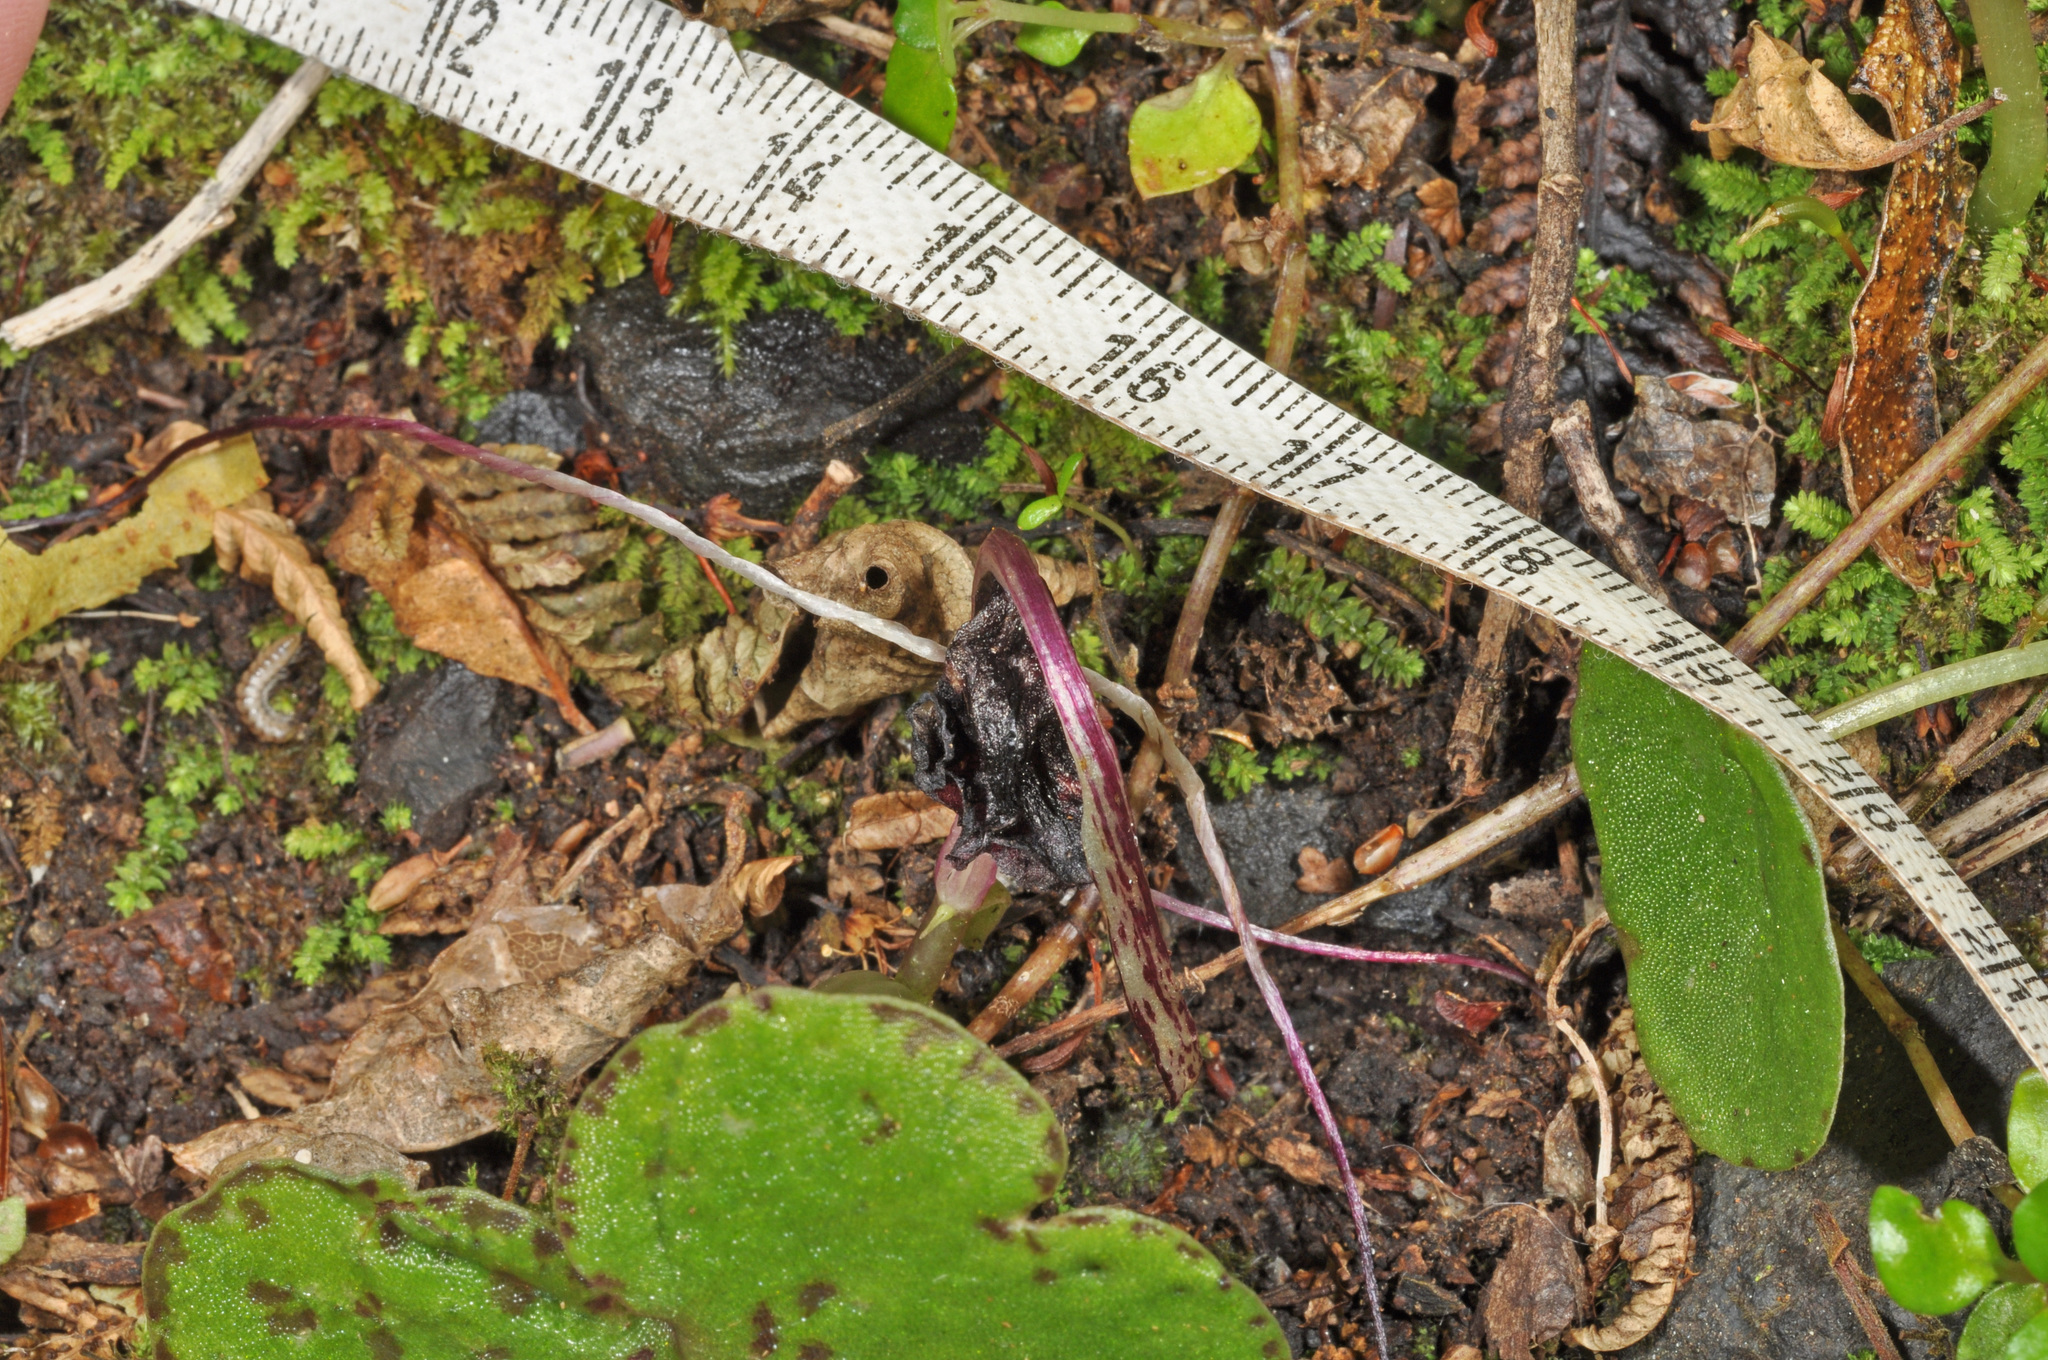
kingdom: Plantae
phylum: Tracheophyta
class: Liliopsida
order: Asparagales
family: Orchidaceae
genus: Corybas
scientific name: Corybas macranthus
